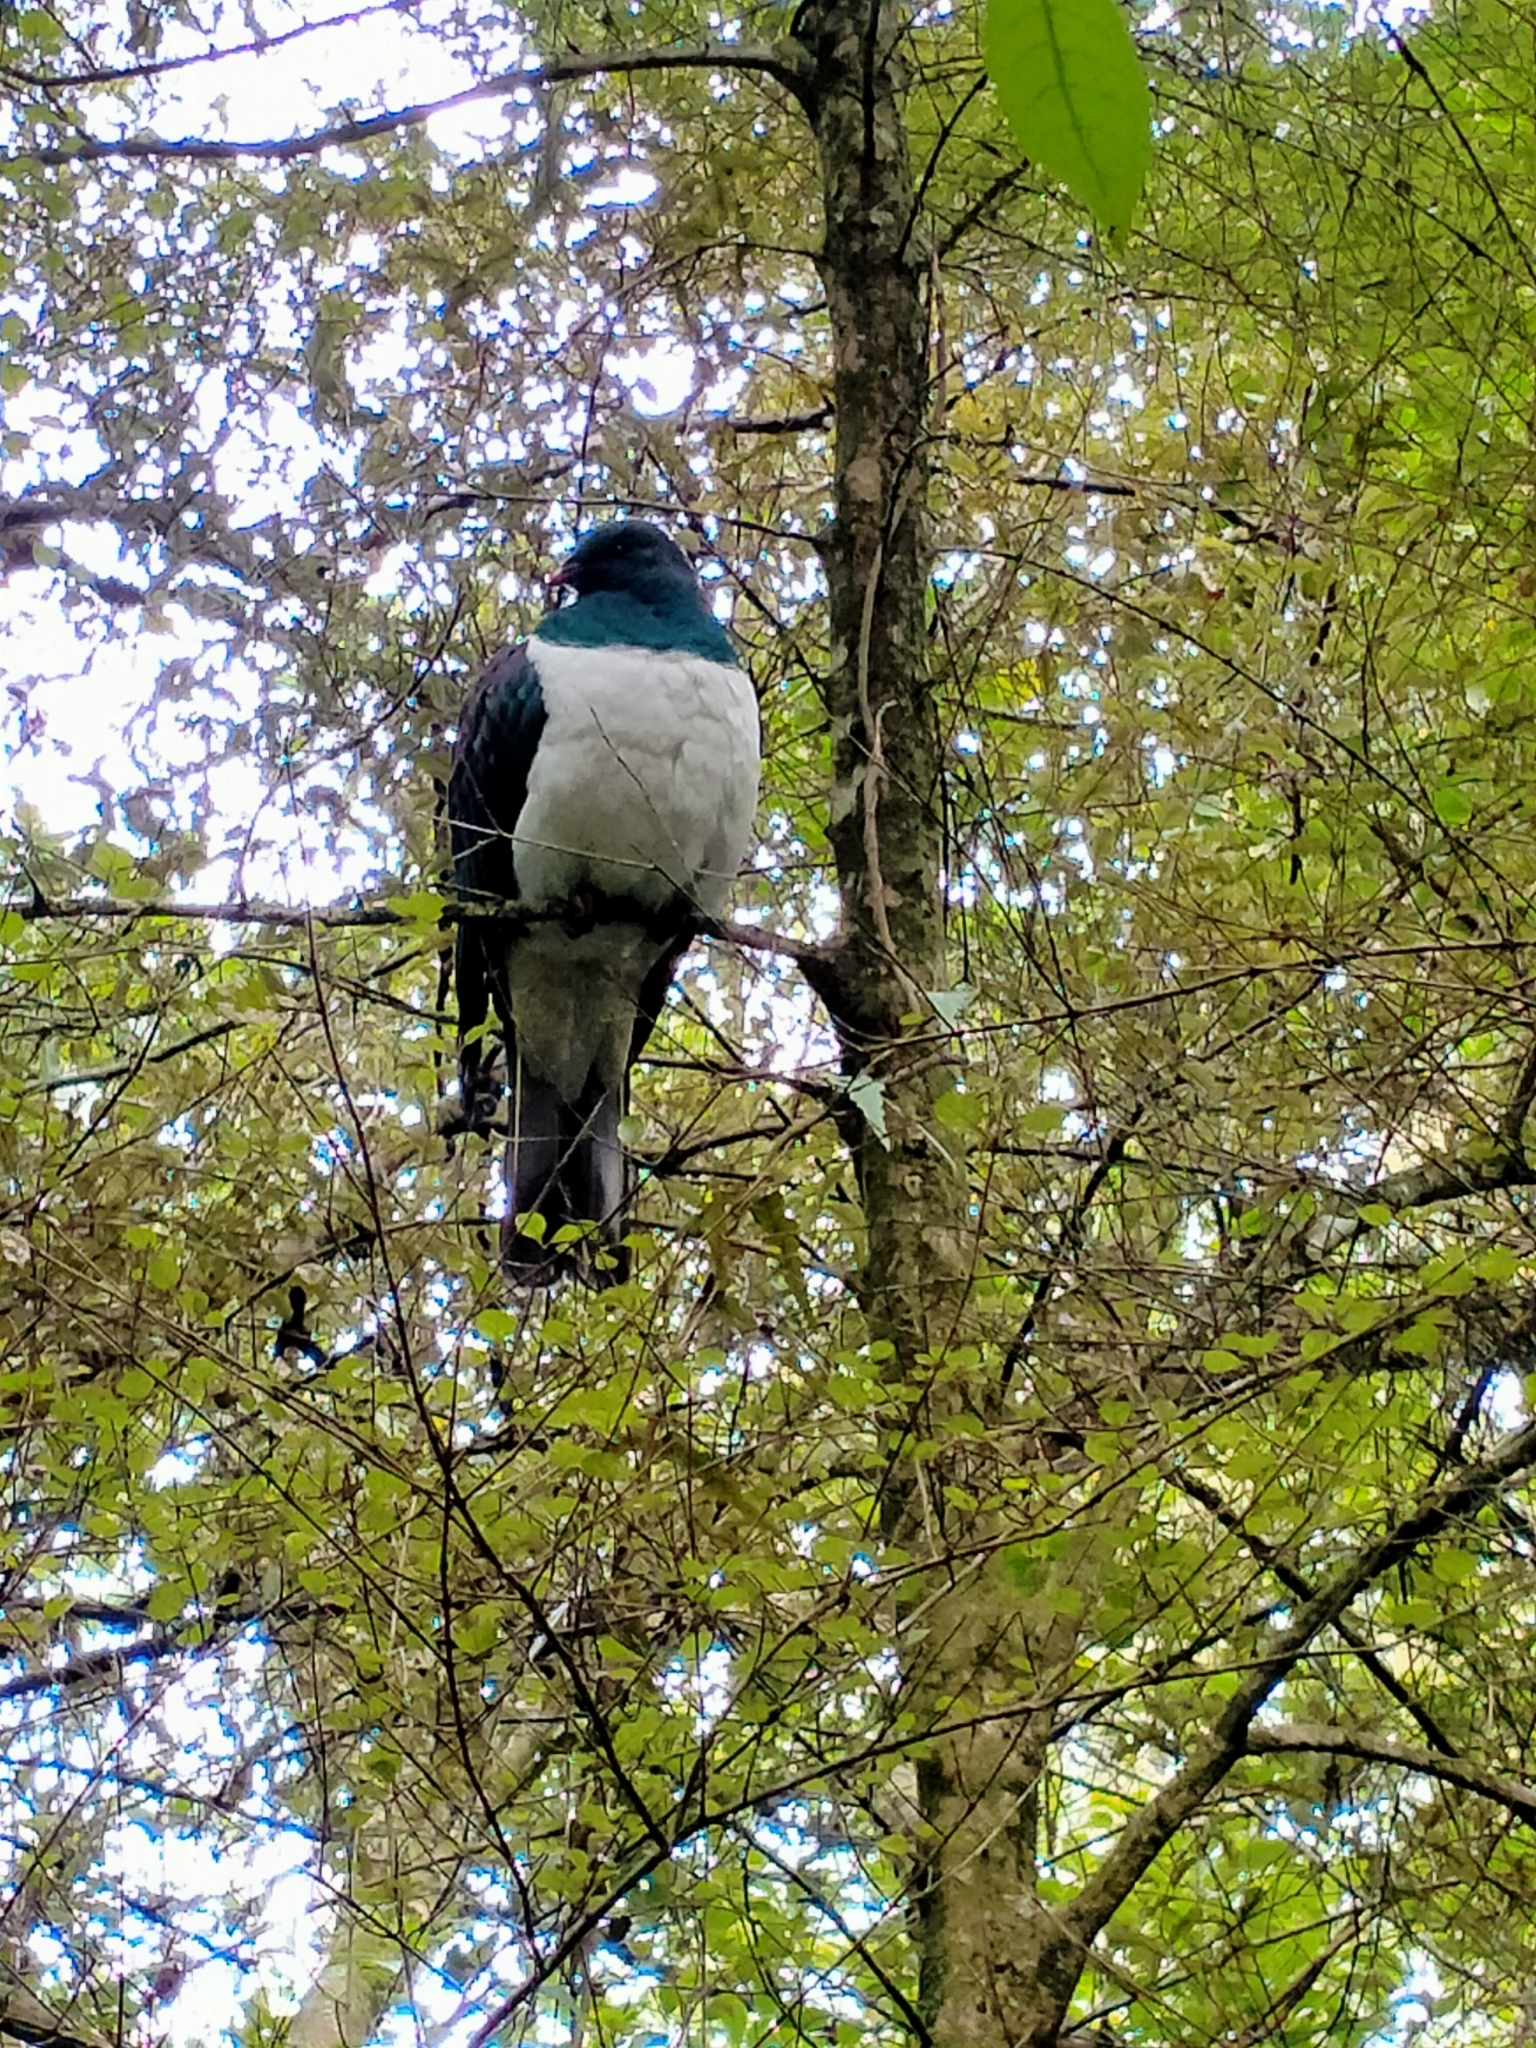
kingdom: Animalia
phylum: Chordata
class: Aves
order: Columbiformes
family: Columbidae
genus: Hemiphaga
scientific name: Hemiphaga novaeseelandiae
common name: New zealand pigeon
